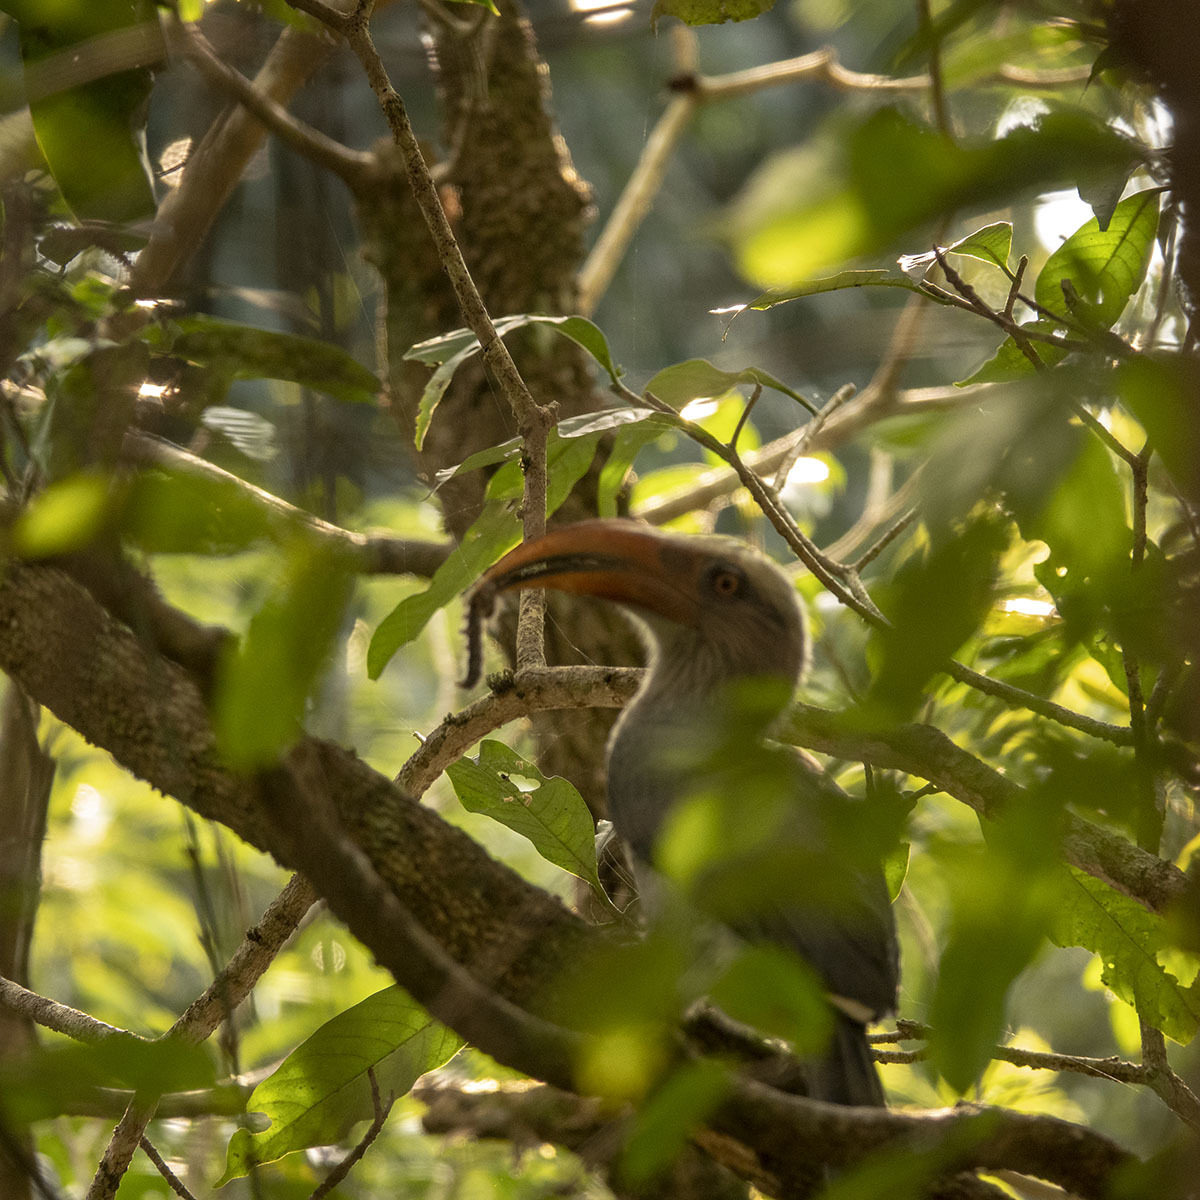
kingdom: Animalia
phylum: Chordata
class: Aves
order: Bucerotiformes
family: Bucerotidae
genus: Ocyceros
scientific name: Ocyceros griseus
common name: Malabar grey hornbill
